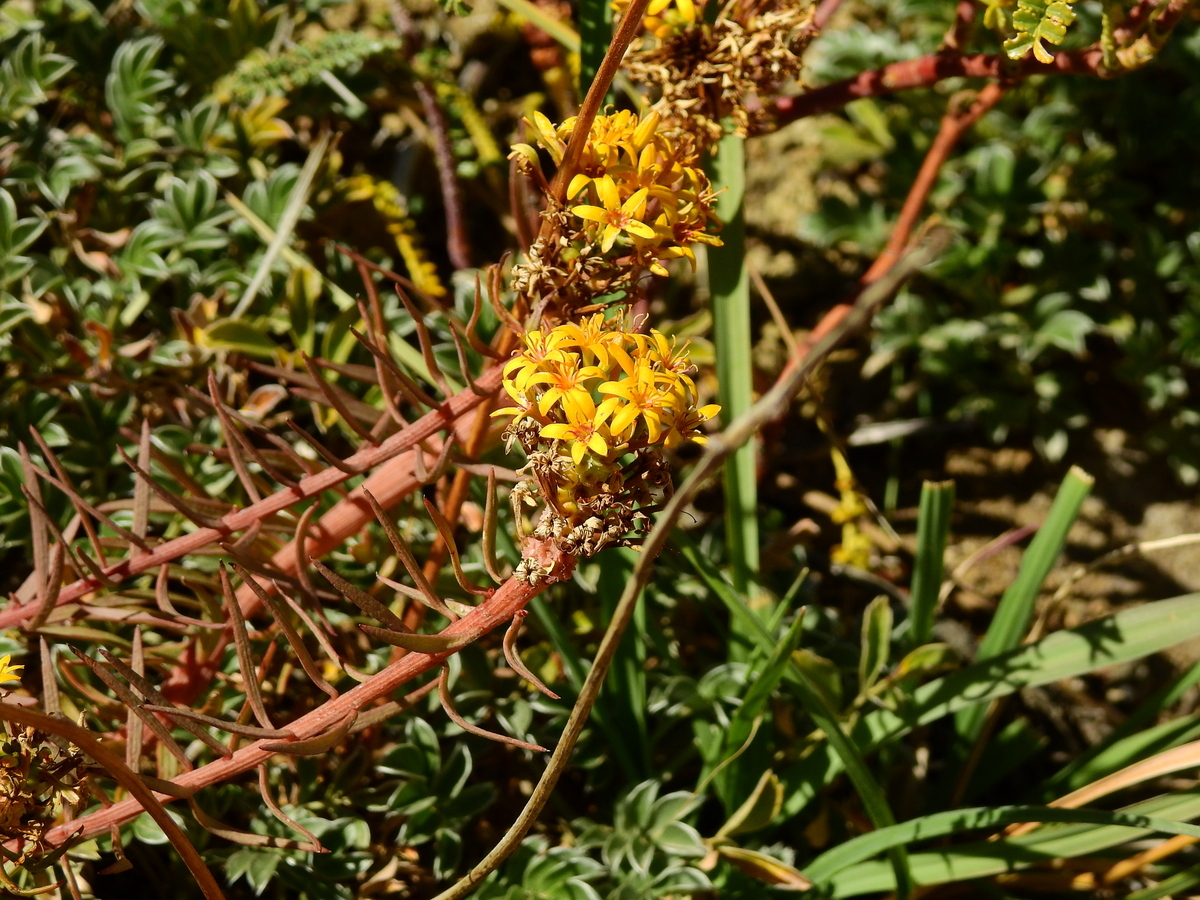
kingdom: Plantae
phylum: Tracheophyta
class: Magnoliopsida
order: Santalales
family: Schoepfiaceae
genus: Quinchamalium
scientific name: Quinchamalium chilense
